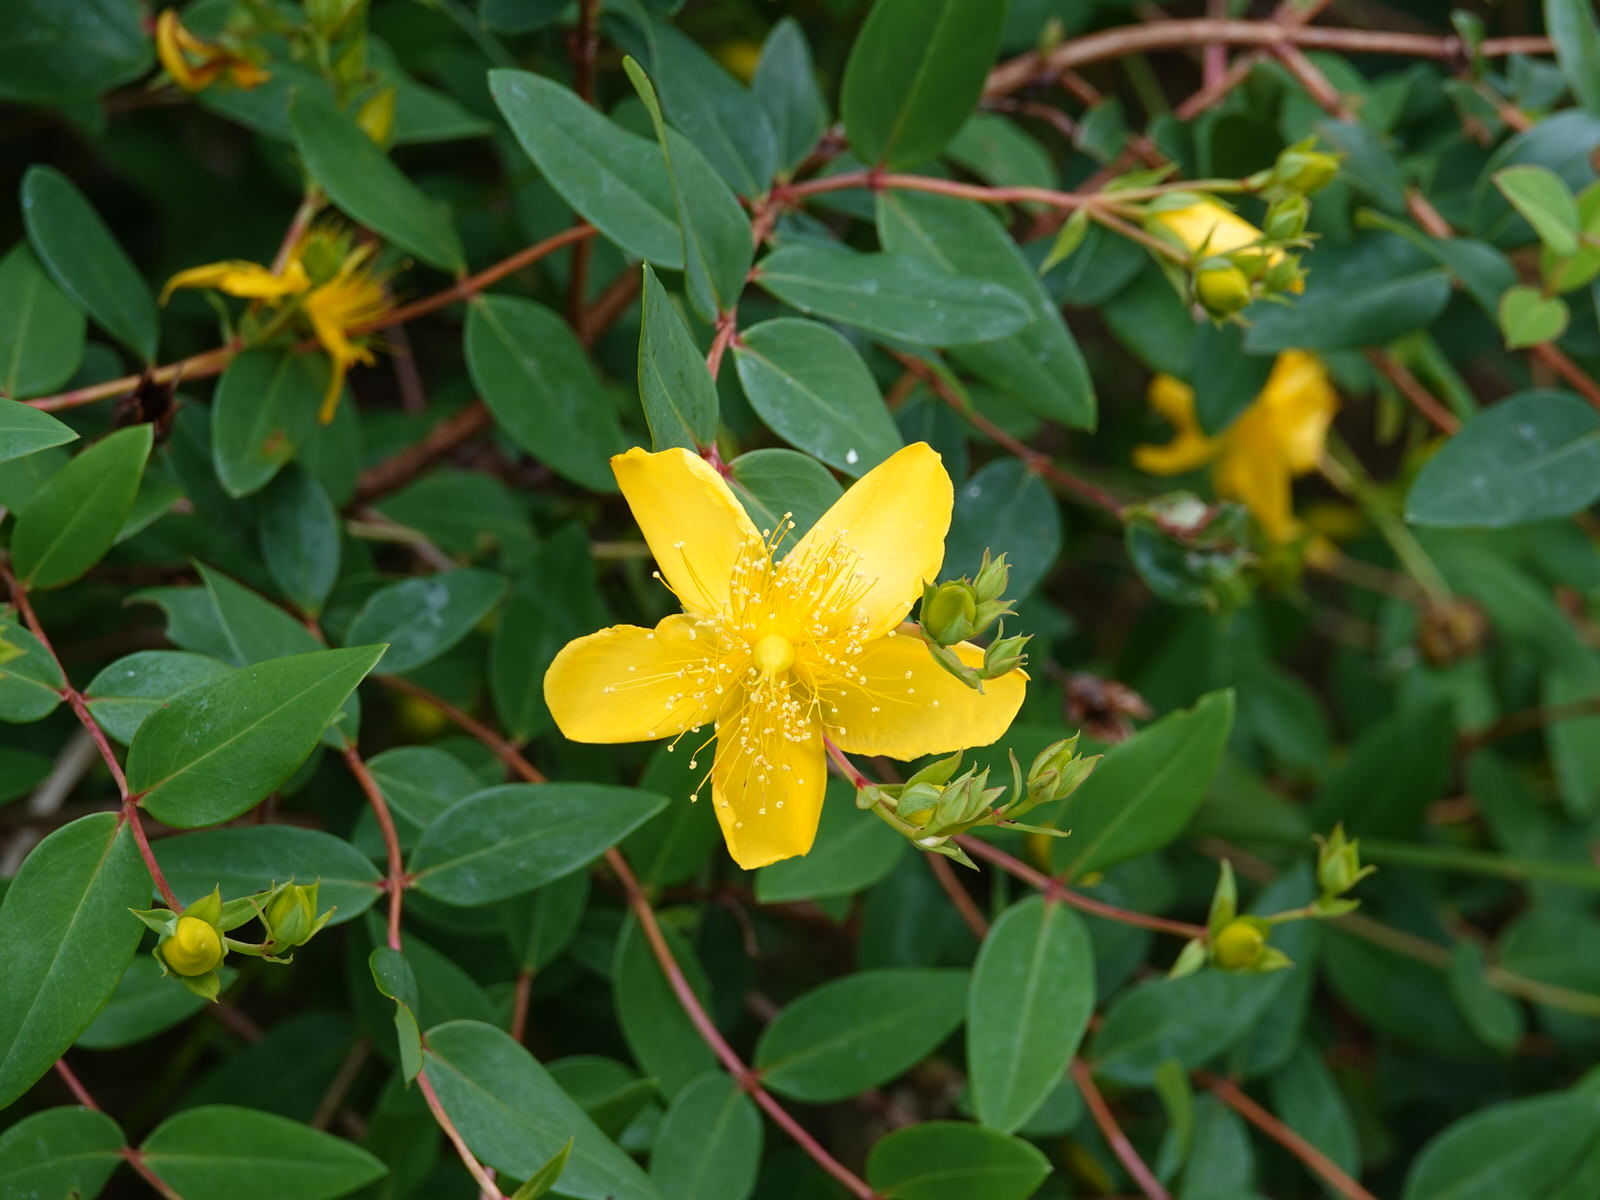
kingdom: Plantae
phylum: Tracheophyta
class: Magnoliopsida
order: Malpighiales
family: Hypericaceae
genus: Hypericum
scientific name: Hypericum calycinum
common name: Rose-of-sharon
